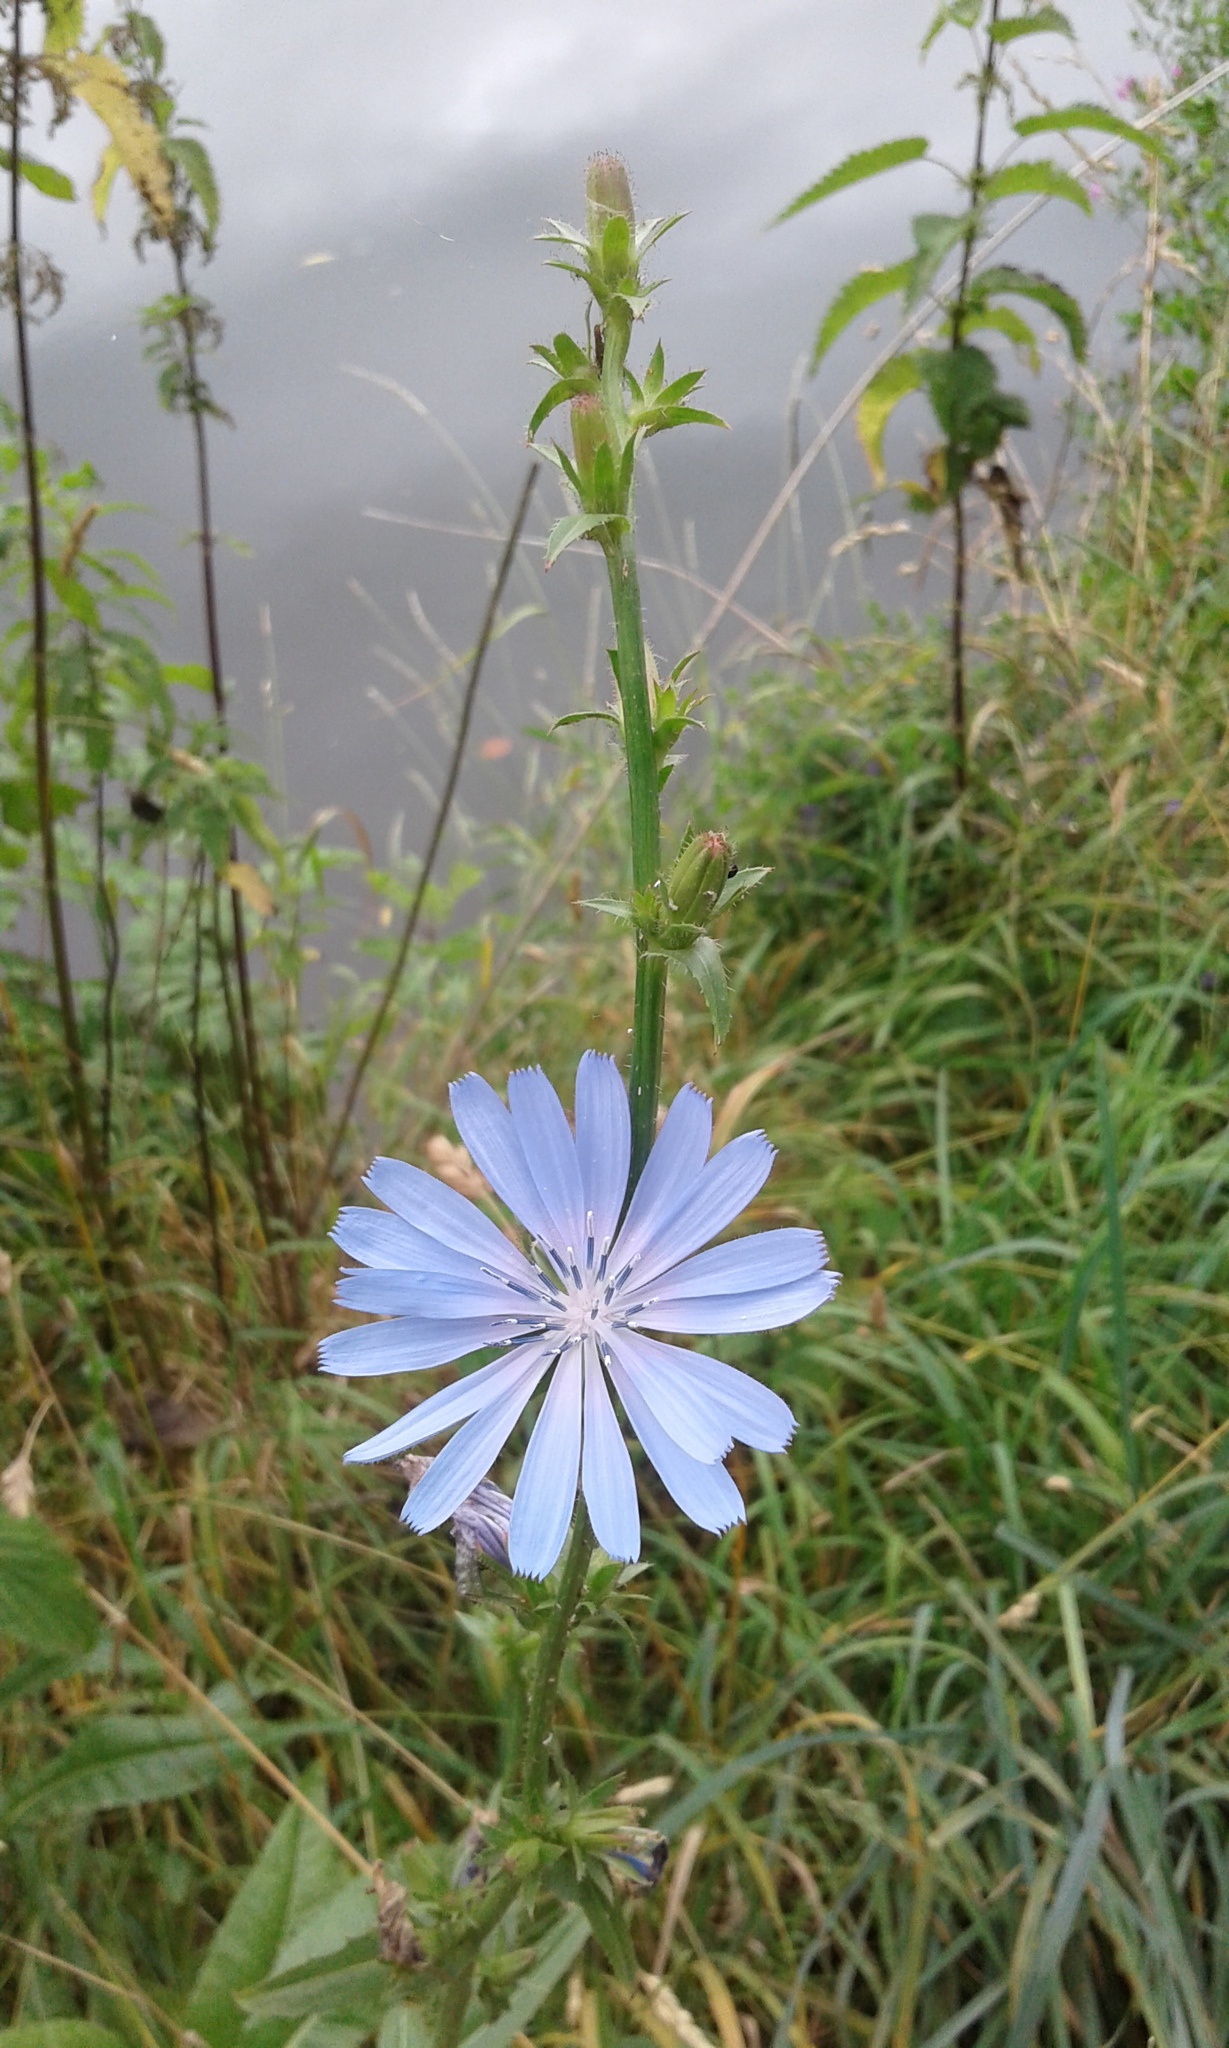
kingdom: Plantae
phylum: Tracheophyta
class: Magnoliopsida
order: Asterales
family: Asteraceae
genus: Cichorium
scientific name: Cichorium intybus
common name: Chicory
